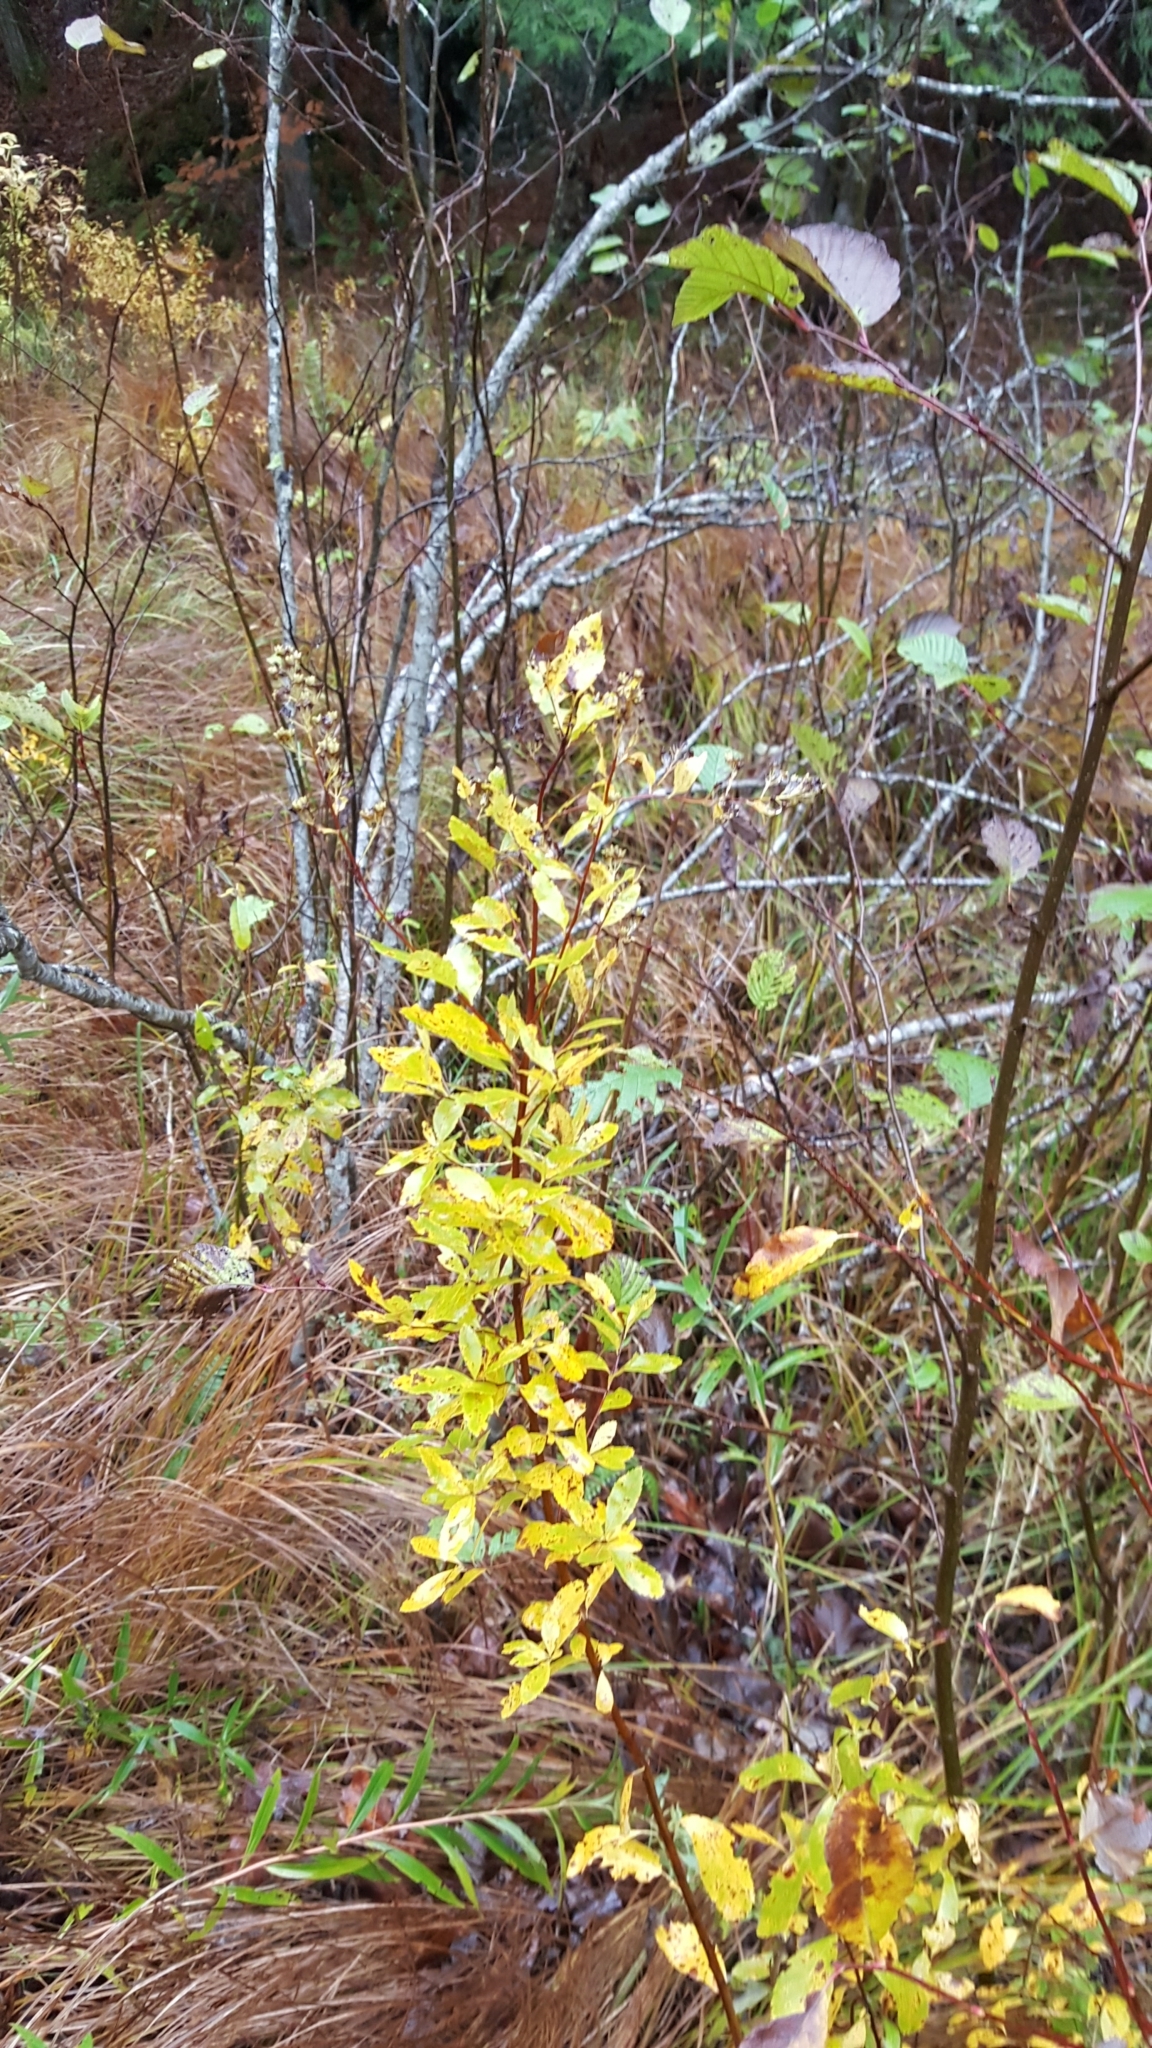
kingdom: Plantae
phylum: Tracheophyta
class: Magnoliopsida
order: Rosales
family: Rosaceae
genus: Spiraea
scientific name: Spiraea alba
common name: Pale bridewort
